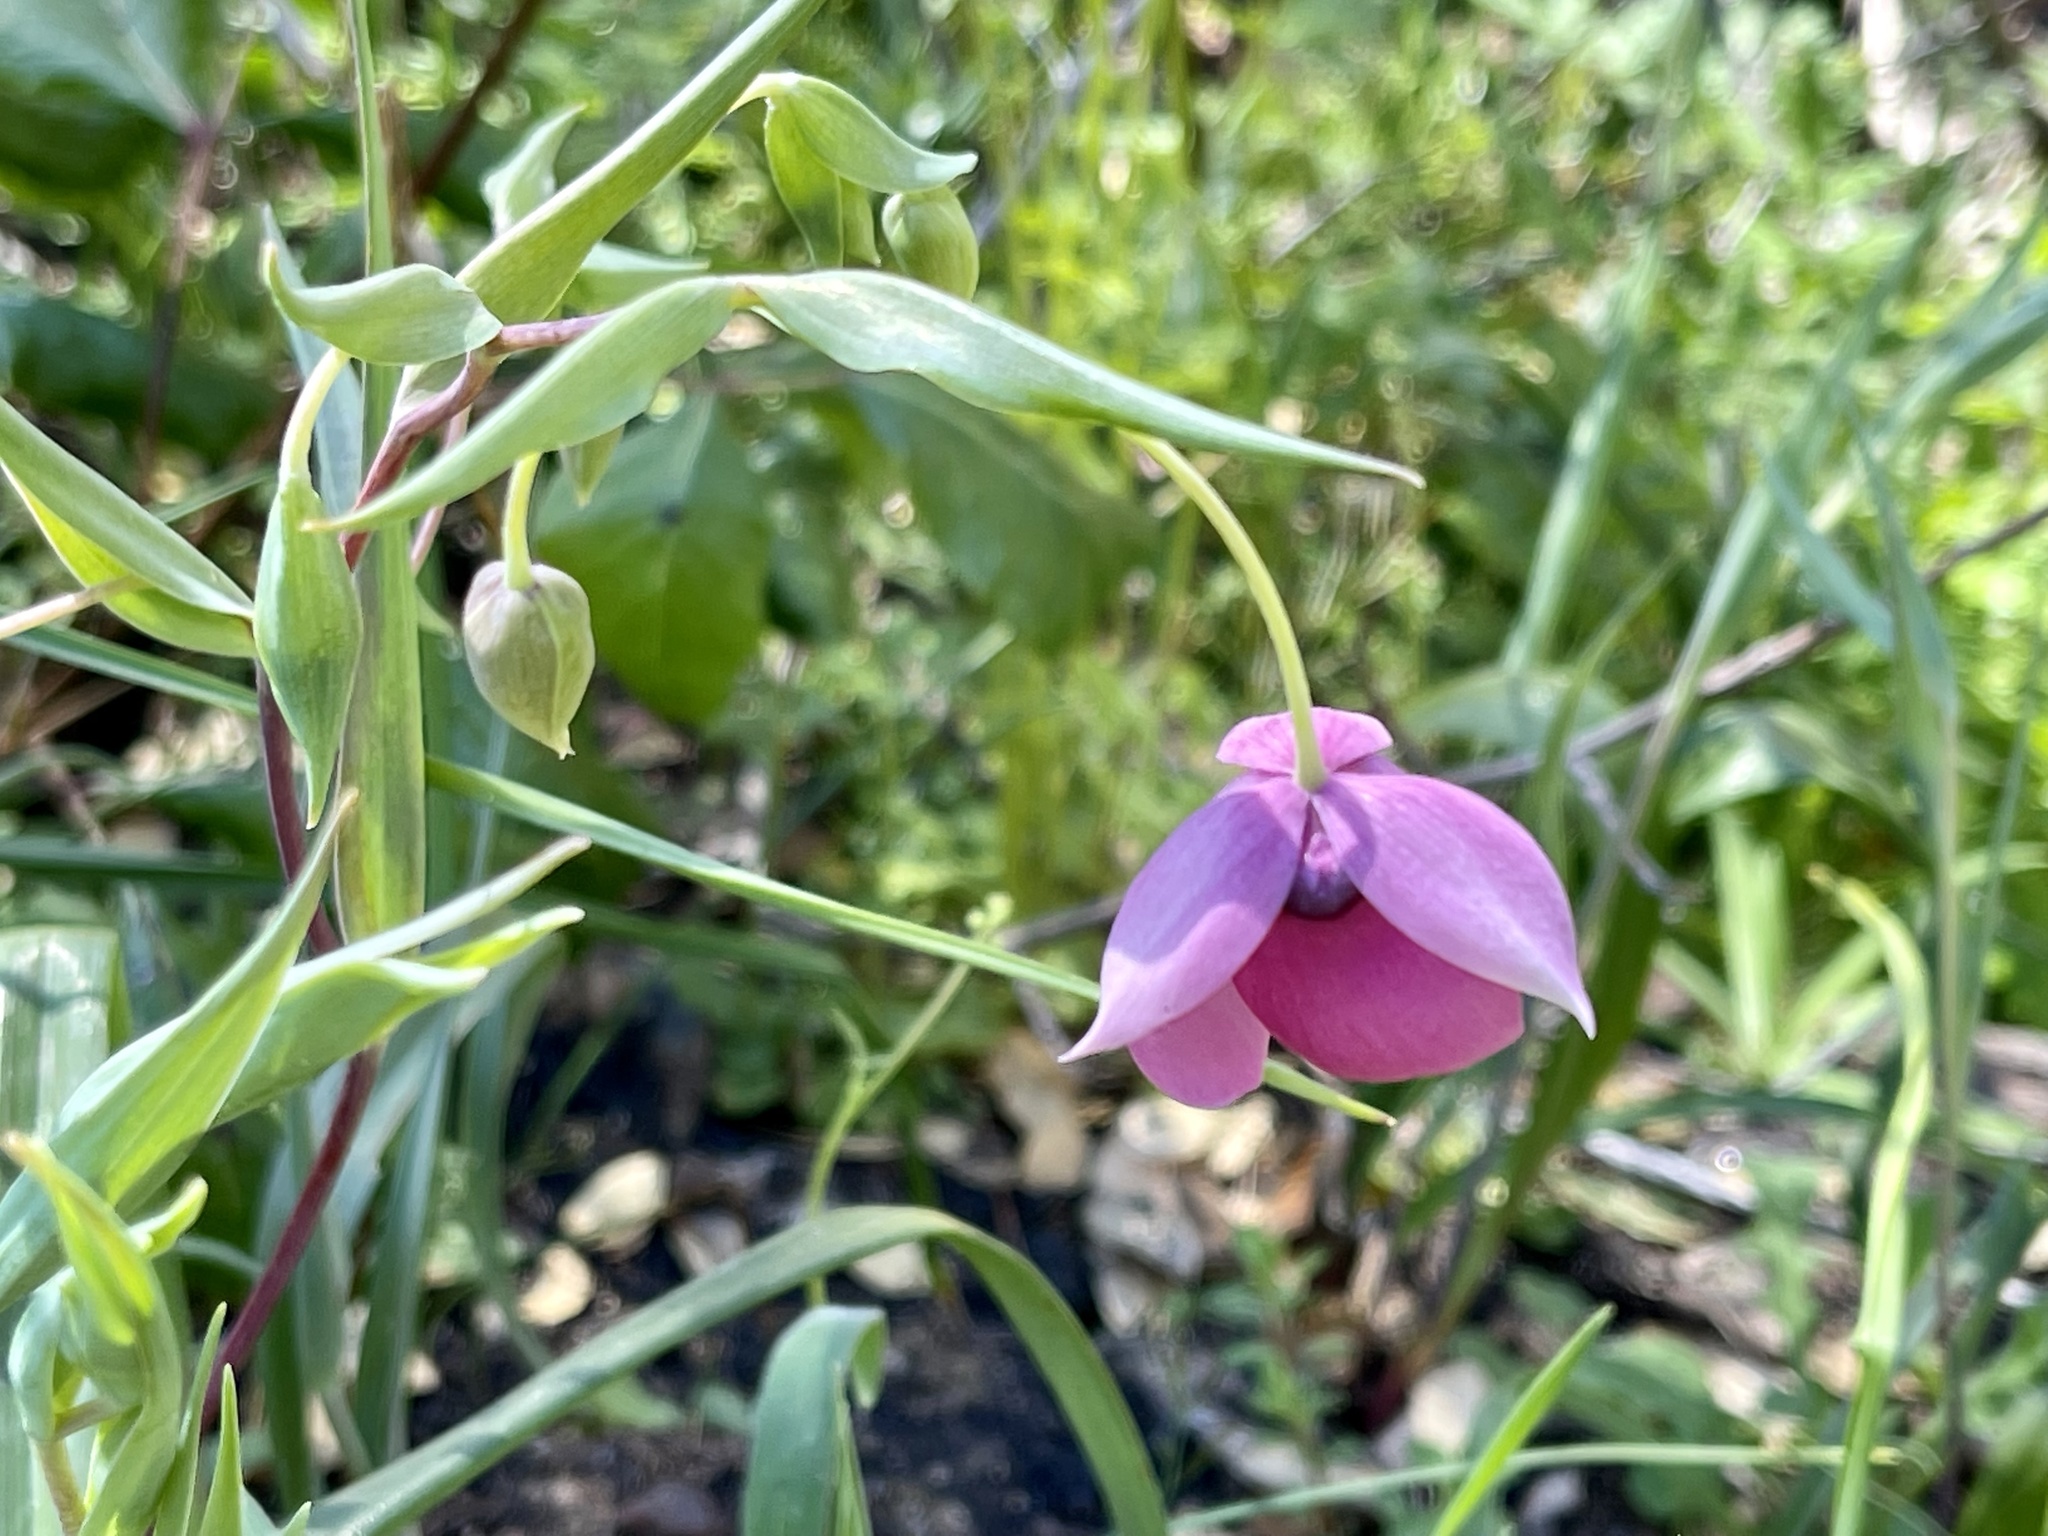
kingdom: Plantae
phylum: Tracheophyta
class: Liliopsida
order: Liliales
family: Liliaceae
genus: Calochortus
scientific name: Calochortus amoenus
